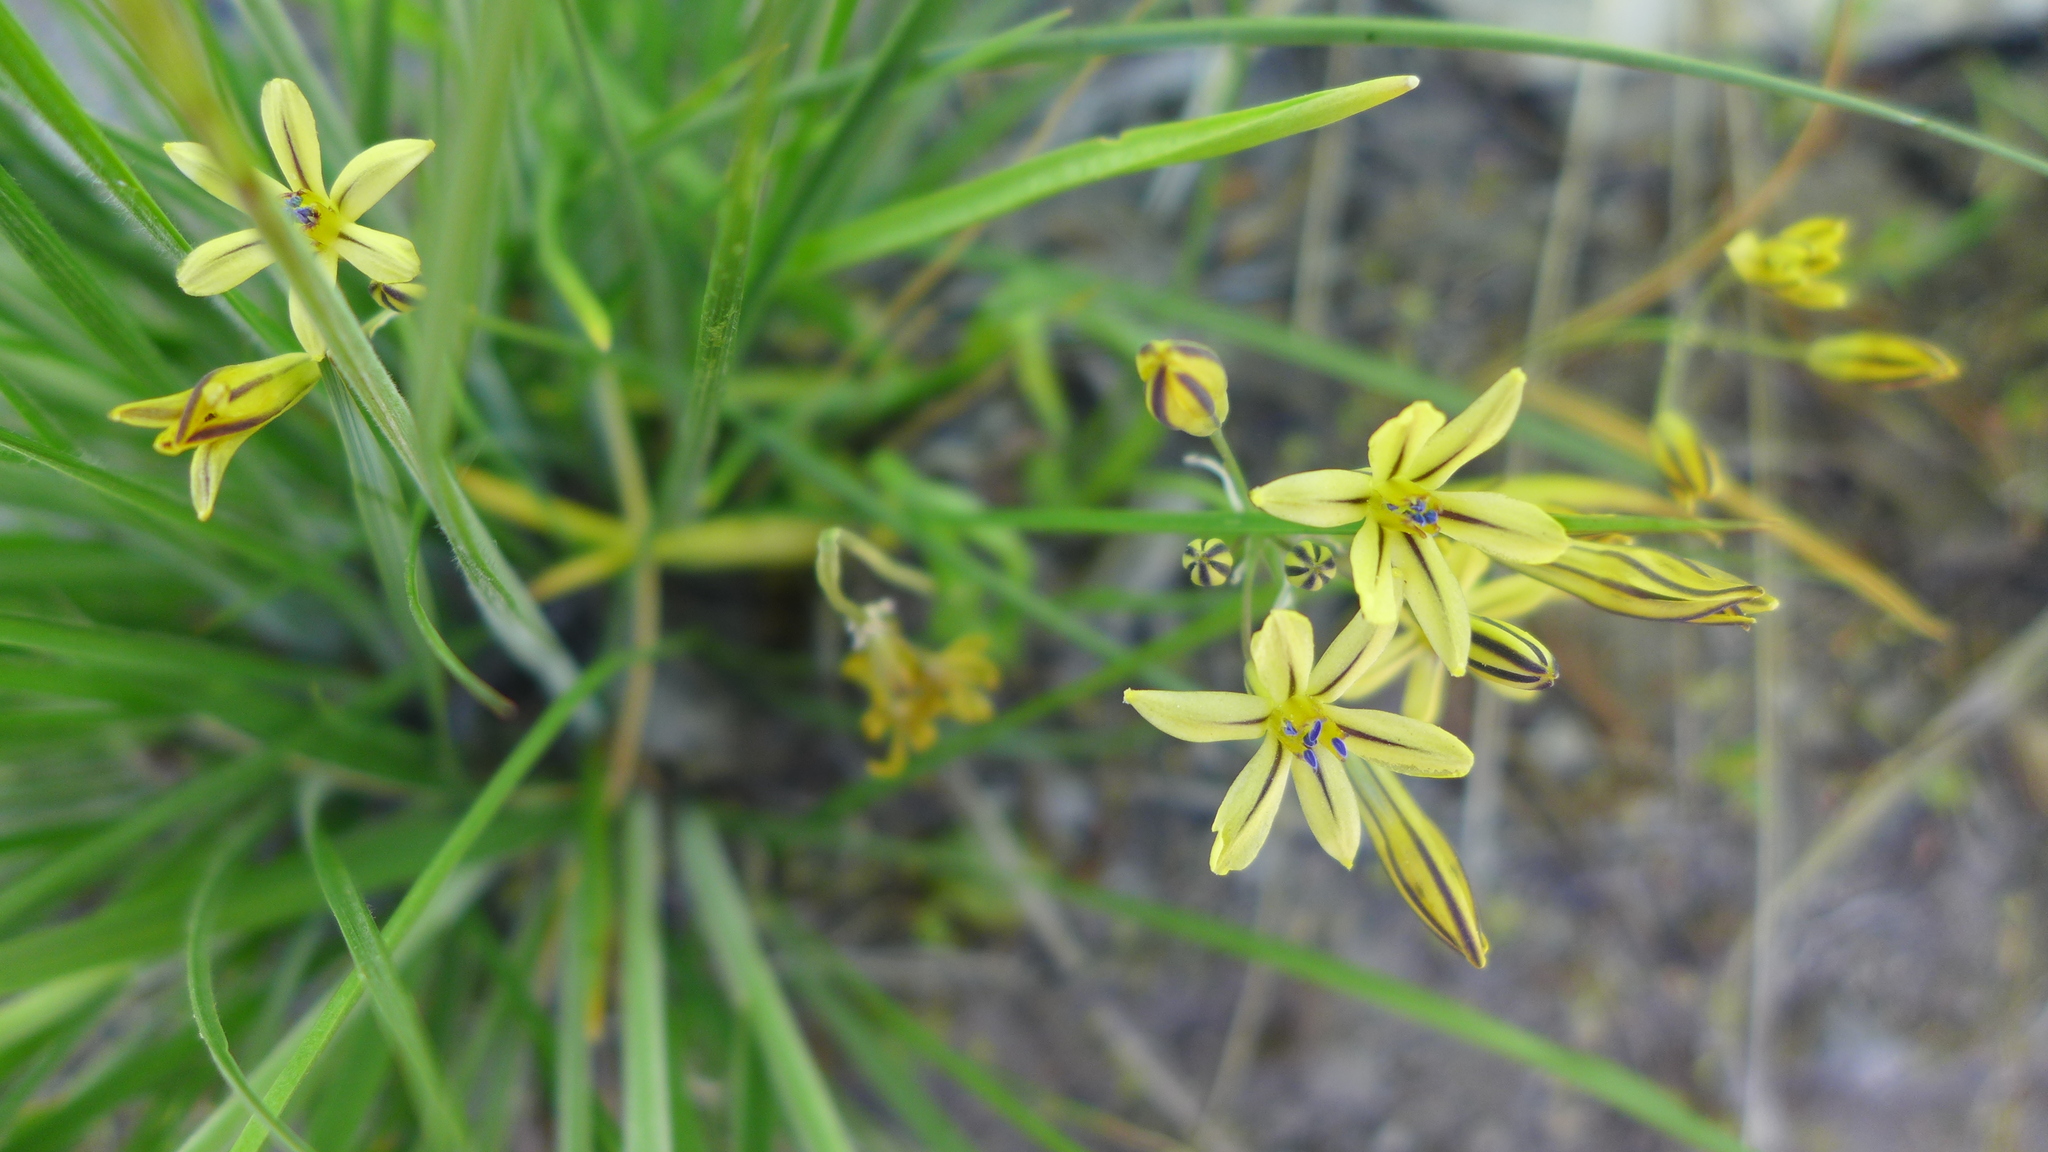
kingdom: Plantae
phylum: Tracheophyta
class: Liliopsida
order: Asparagales
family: Asparagaceae
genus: Triteleia
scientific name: Triteleia ixioides
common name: Yellow-brodiaea
